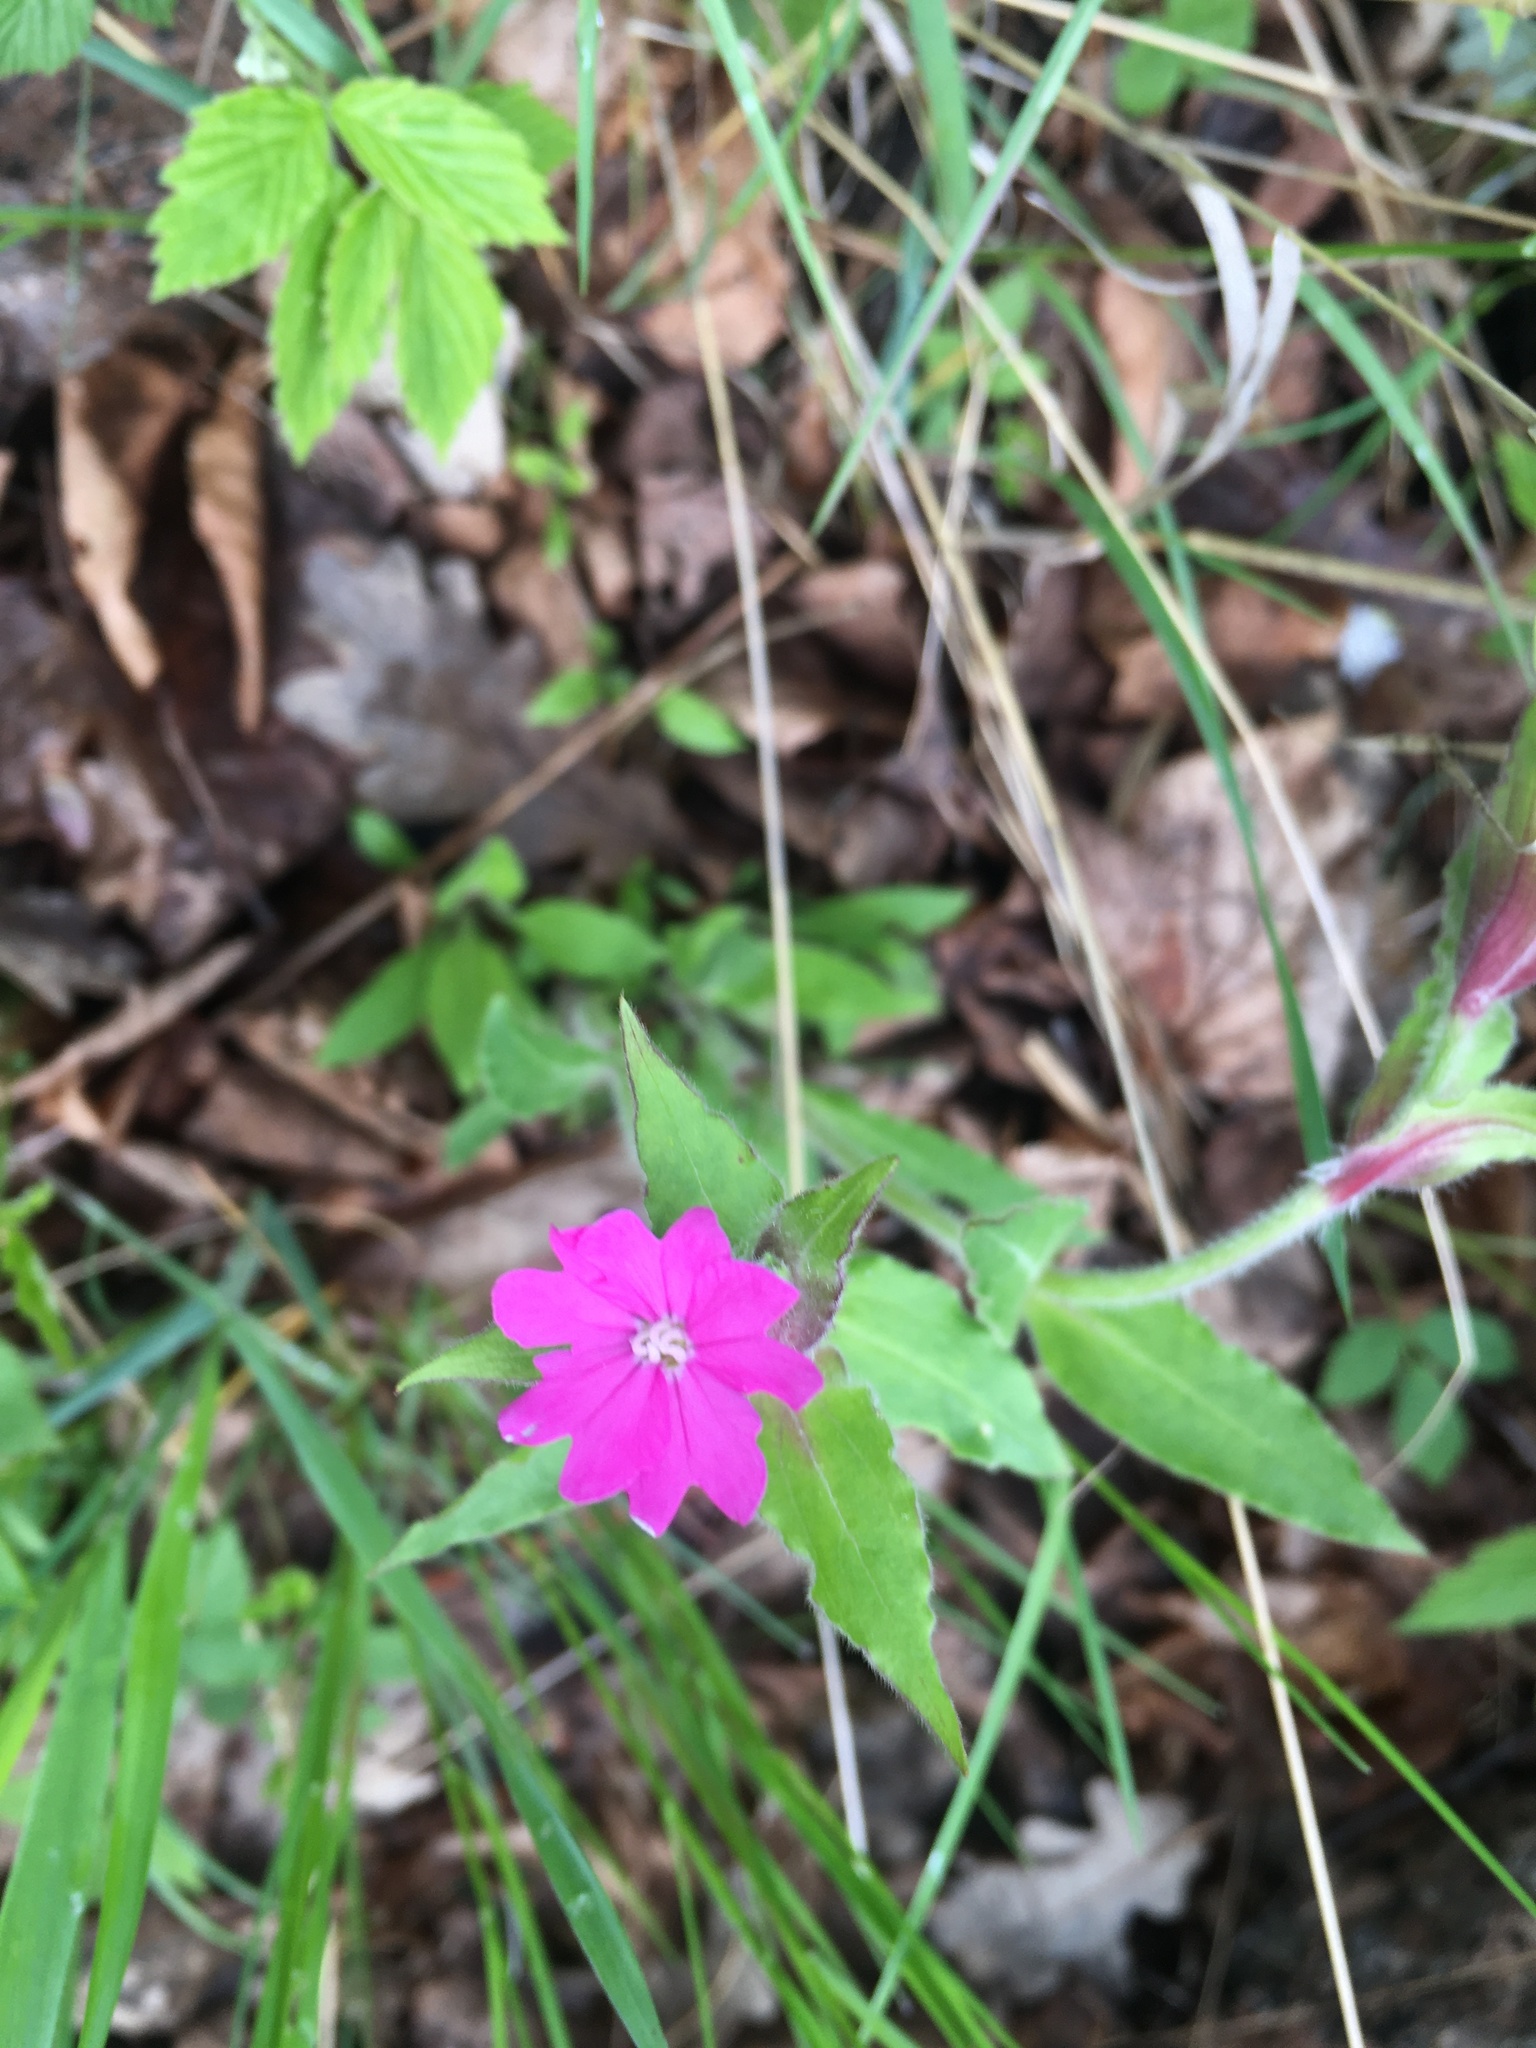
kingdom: Plantae
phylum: Tracheophyta
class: Magnoliopsida
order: Caryophyllales
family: Caryophyllaceae
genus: Silene
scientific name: Silene dioica
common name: Red campion
